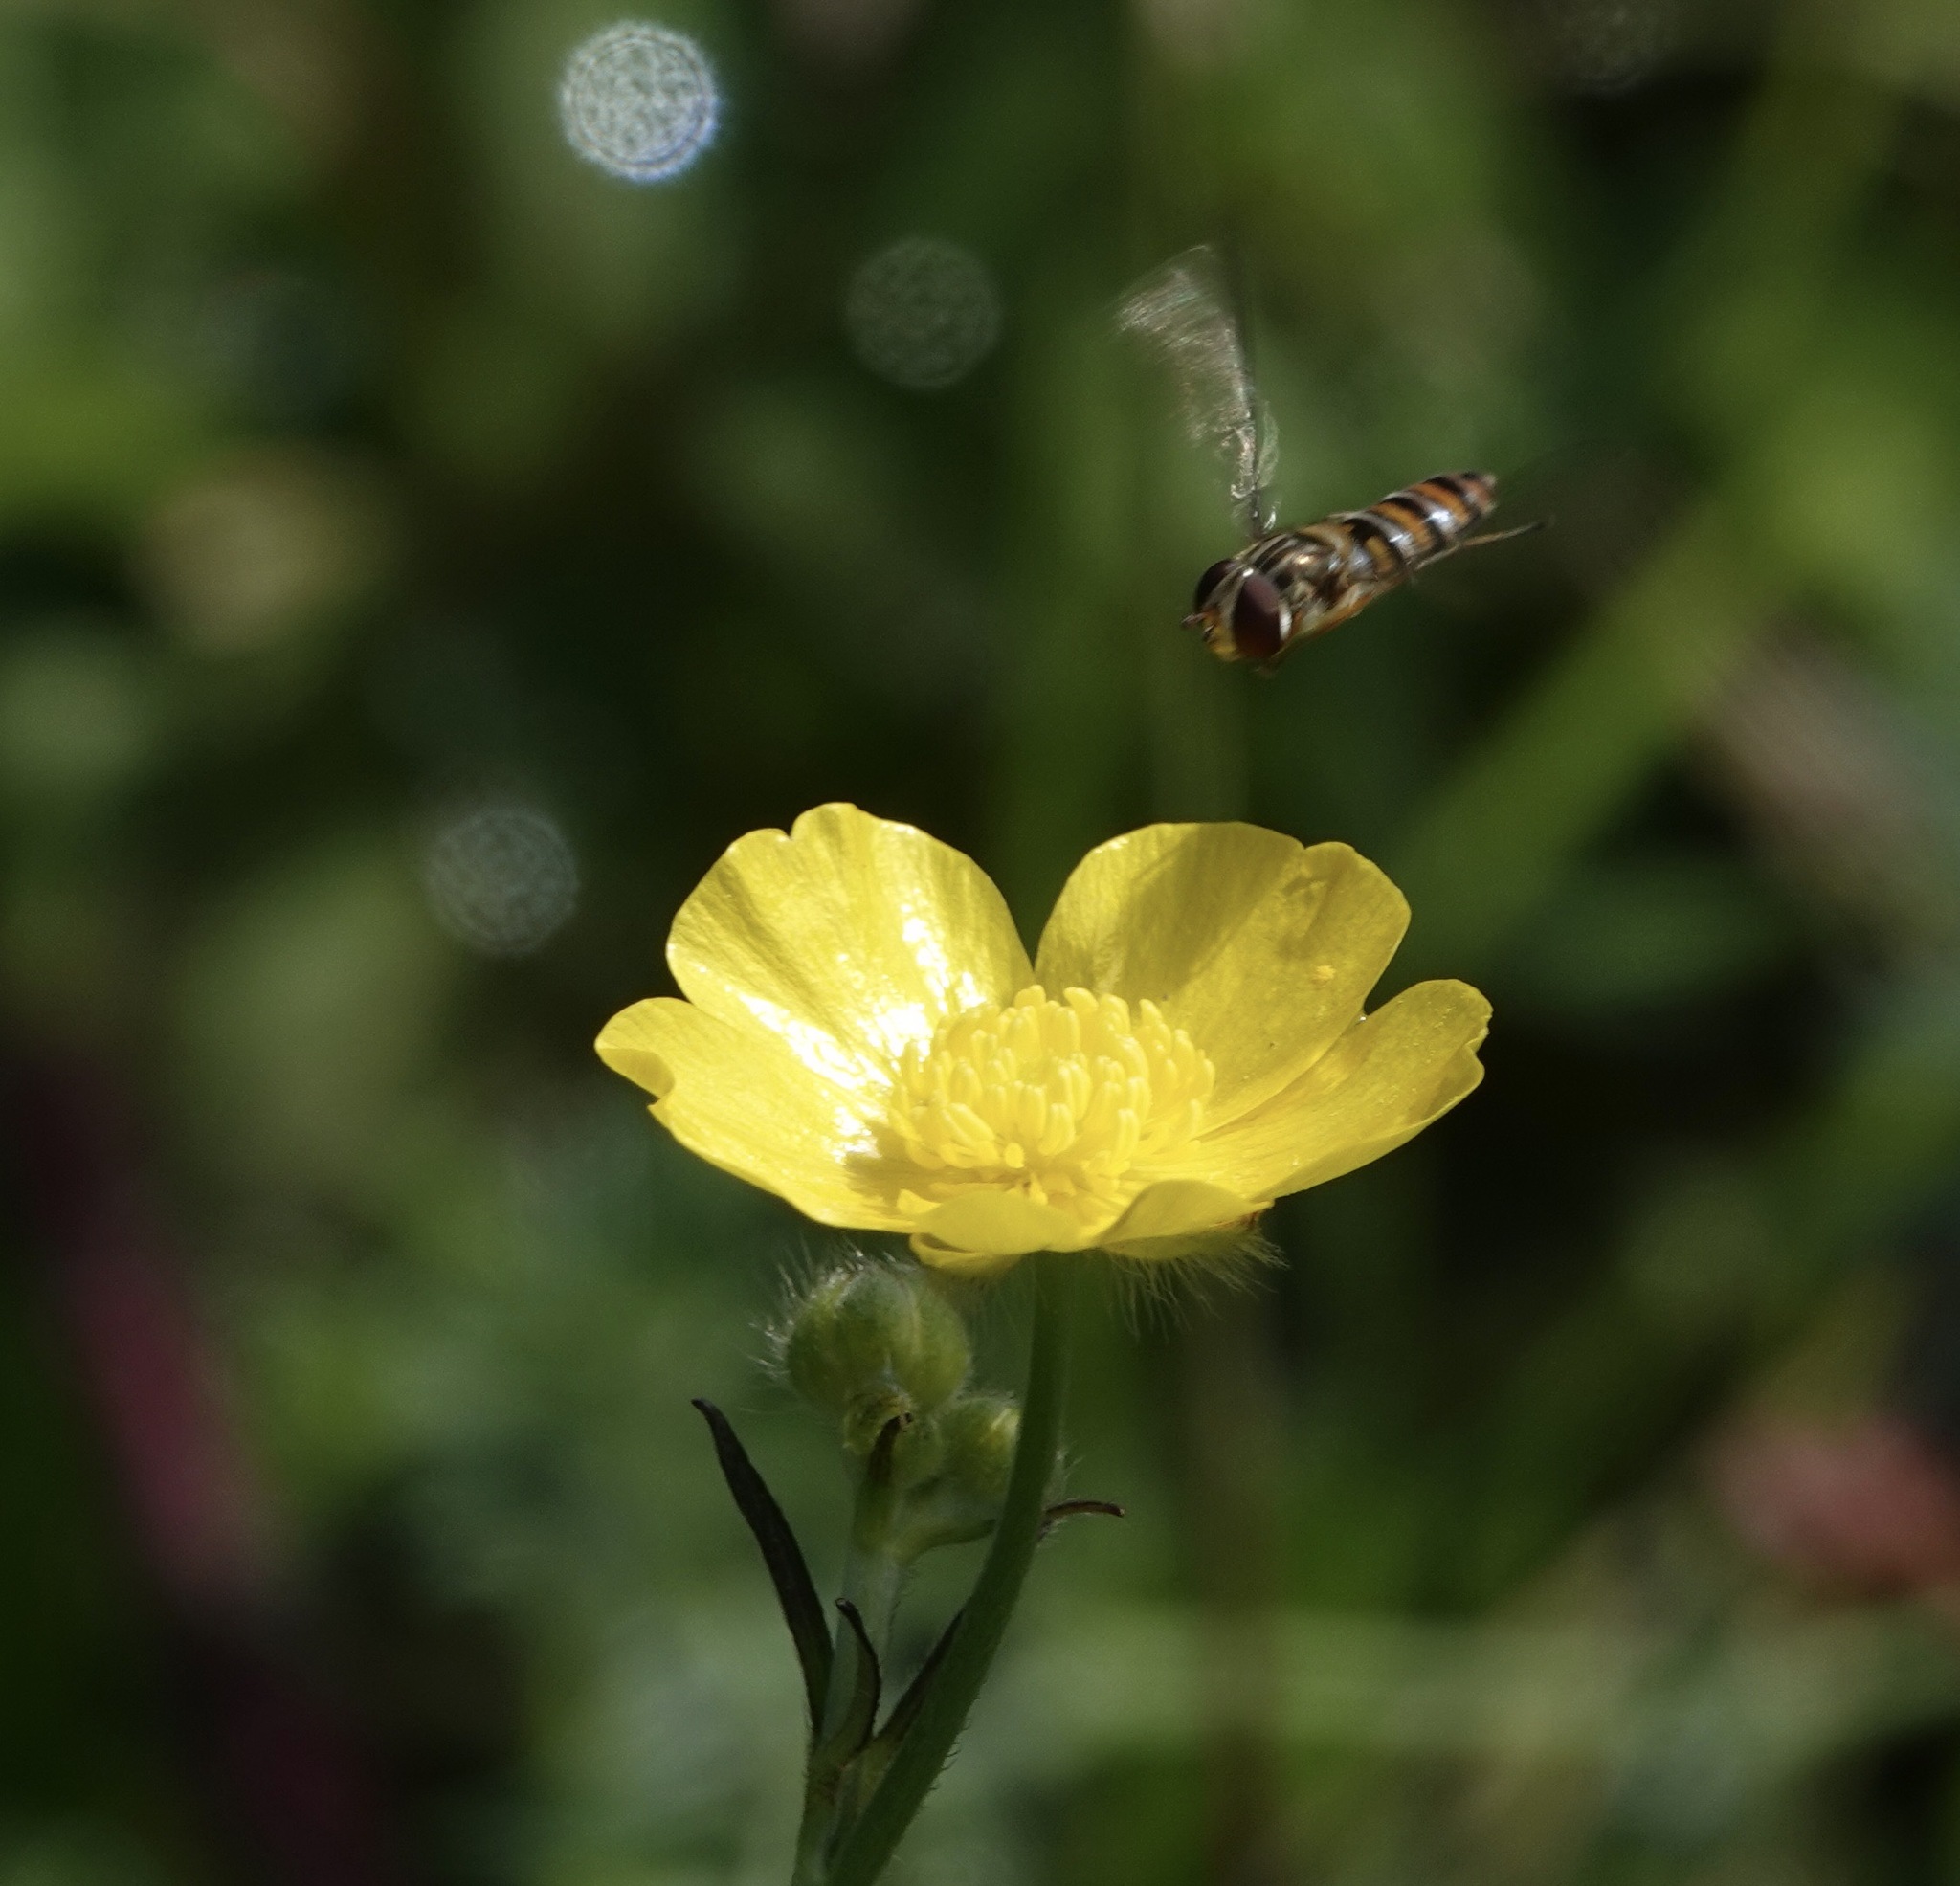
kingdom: Animalia
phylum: Arthropoda
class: Insecta
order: Diptera
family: Syrphidae
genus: Episyrphus
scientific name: Episyrphus balteatus
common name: Marmalade hoverfly
